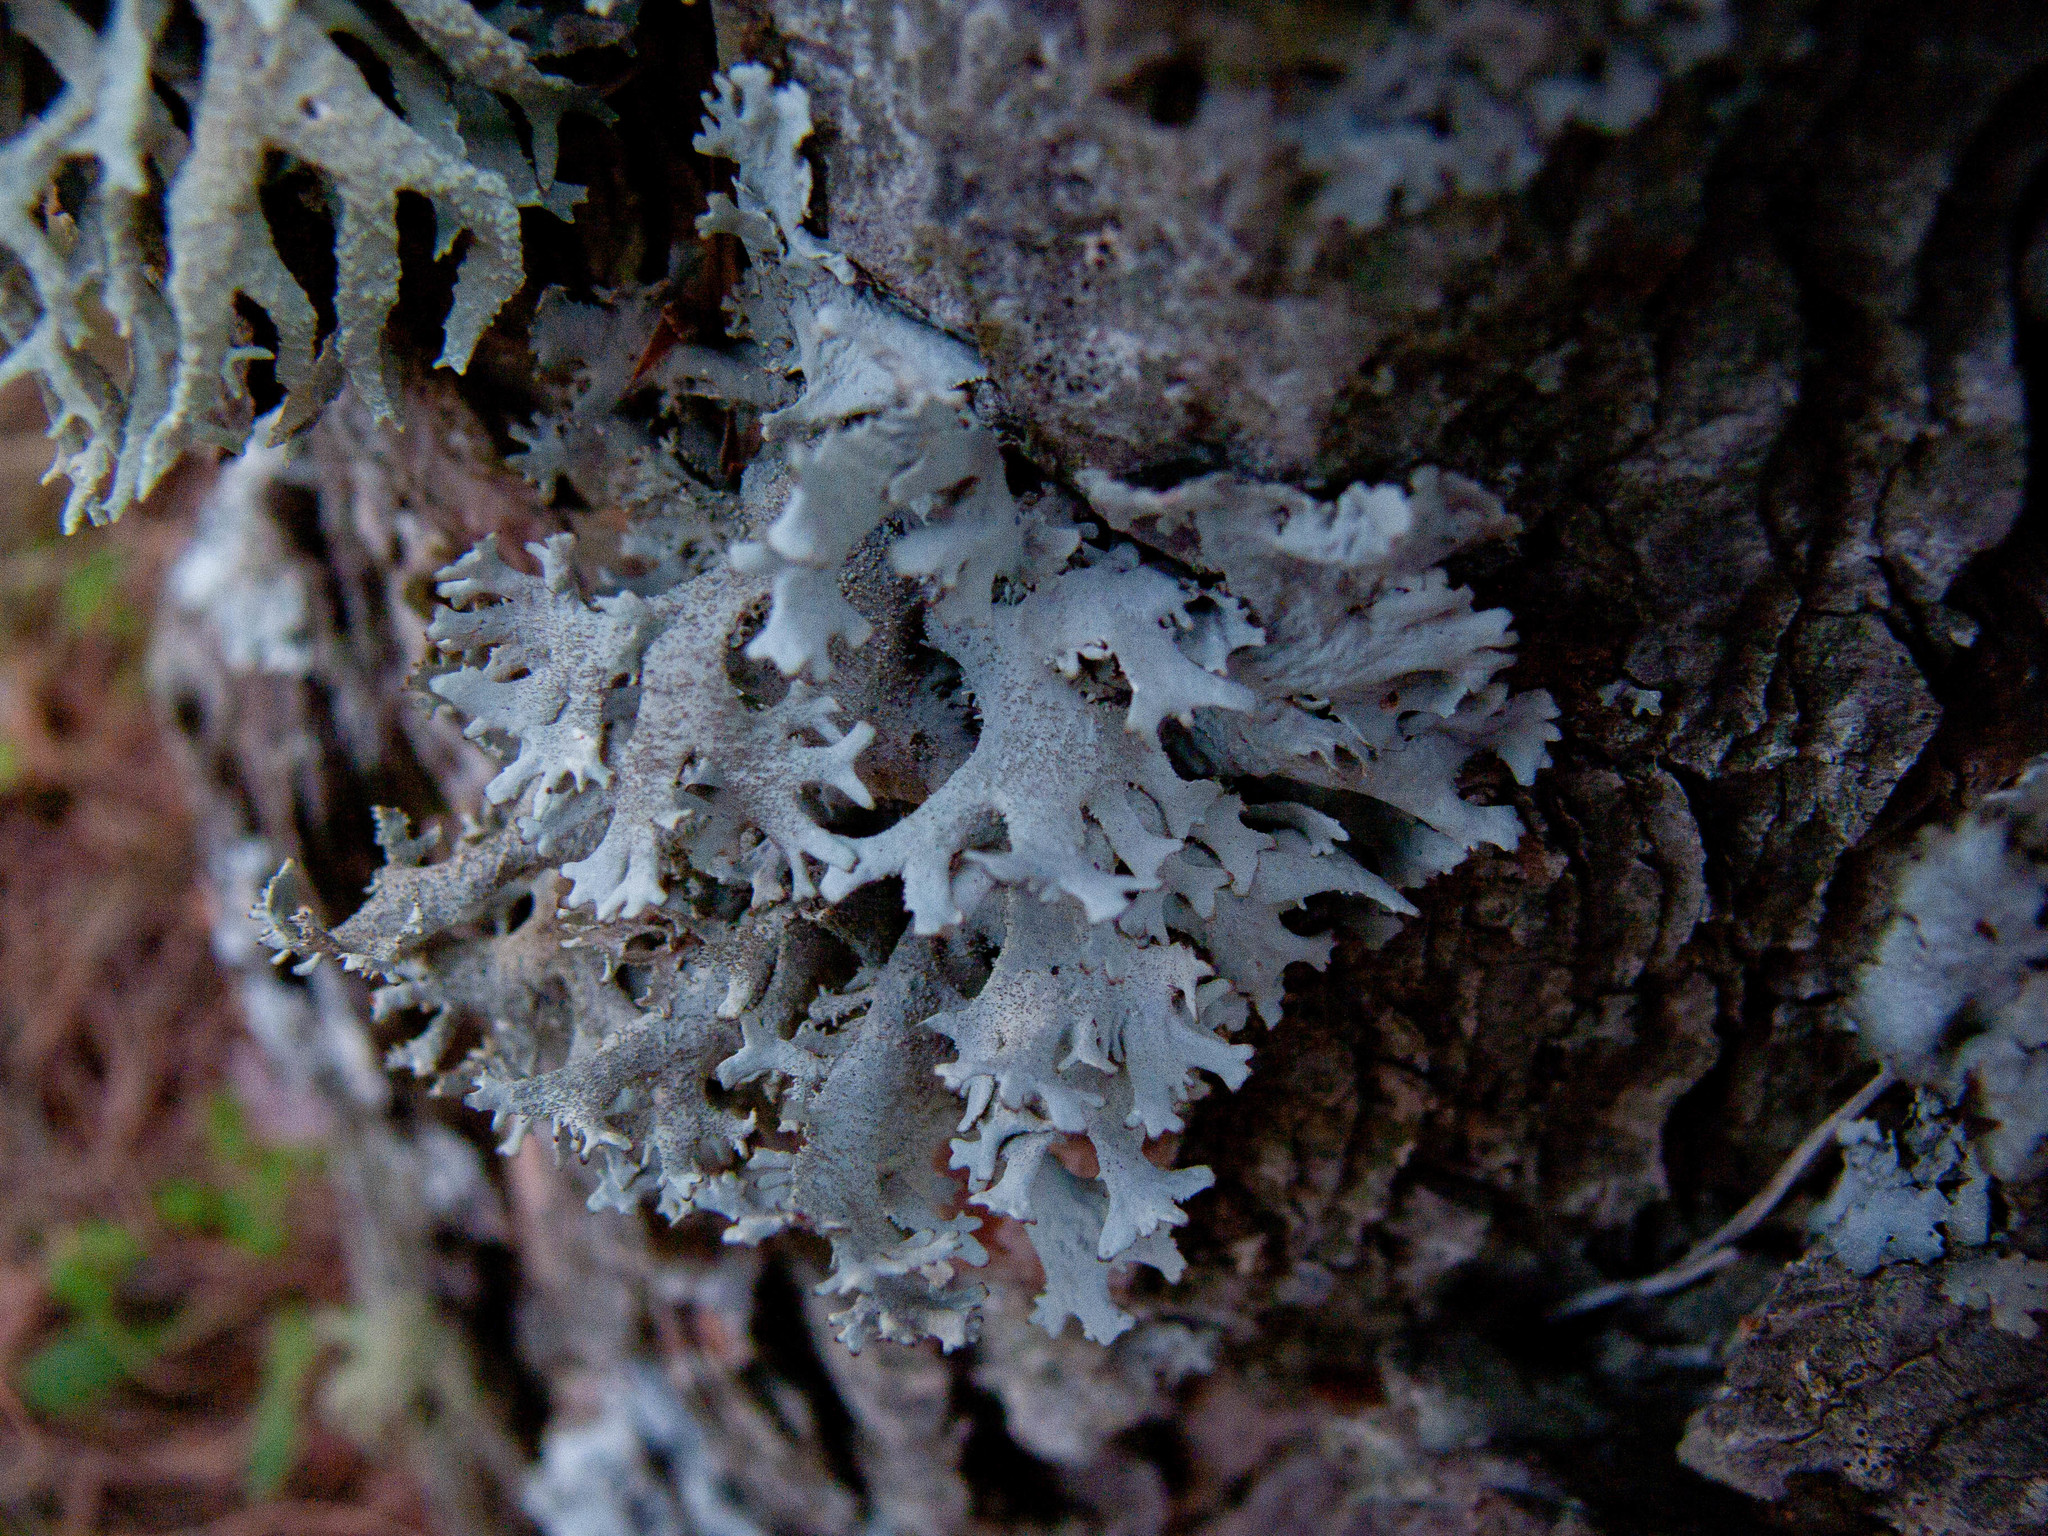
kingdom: Fungi
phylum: Ascomycota
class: Lecanoromycetes
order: Lecanorales
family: Parmeliaceae
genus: Pseudevernia
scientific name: Pseudevernia furfuracea
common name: Tree moss
